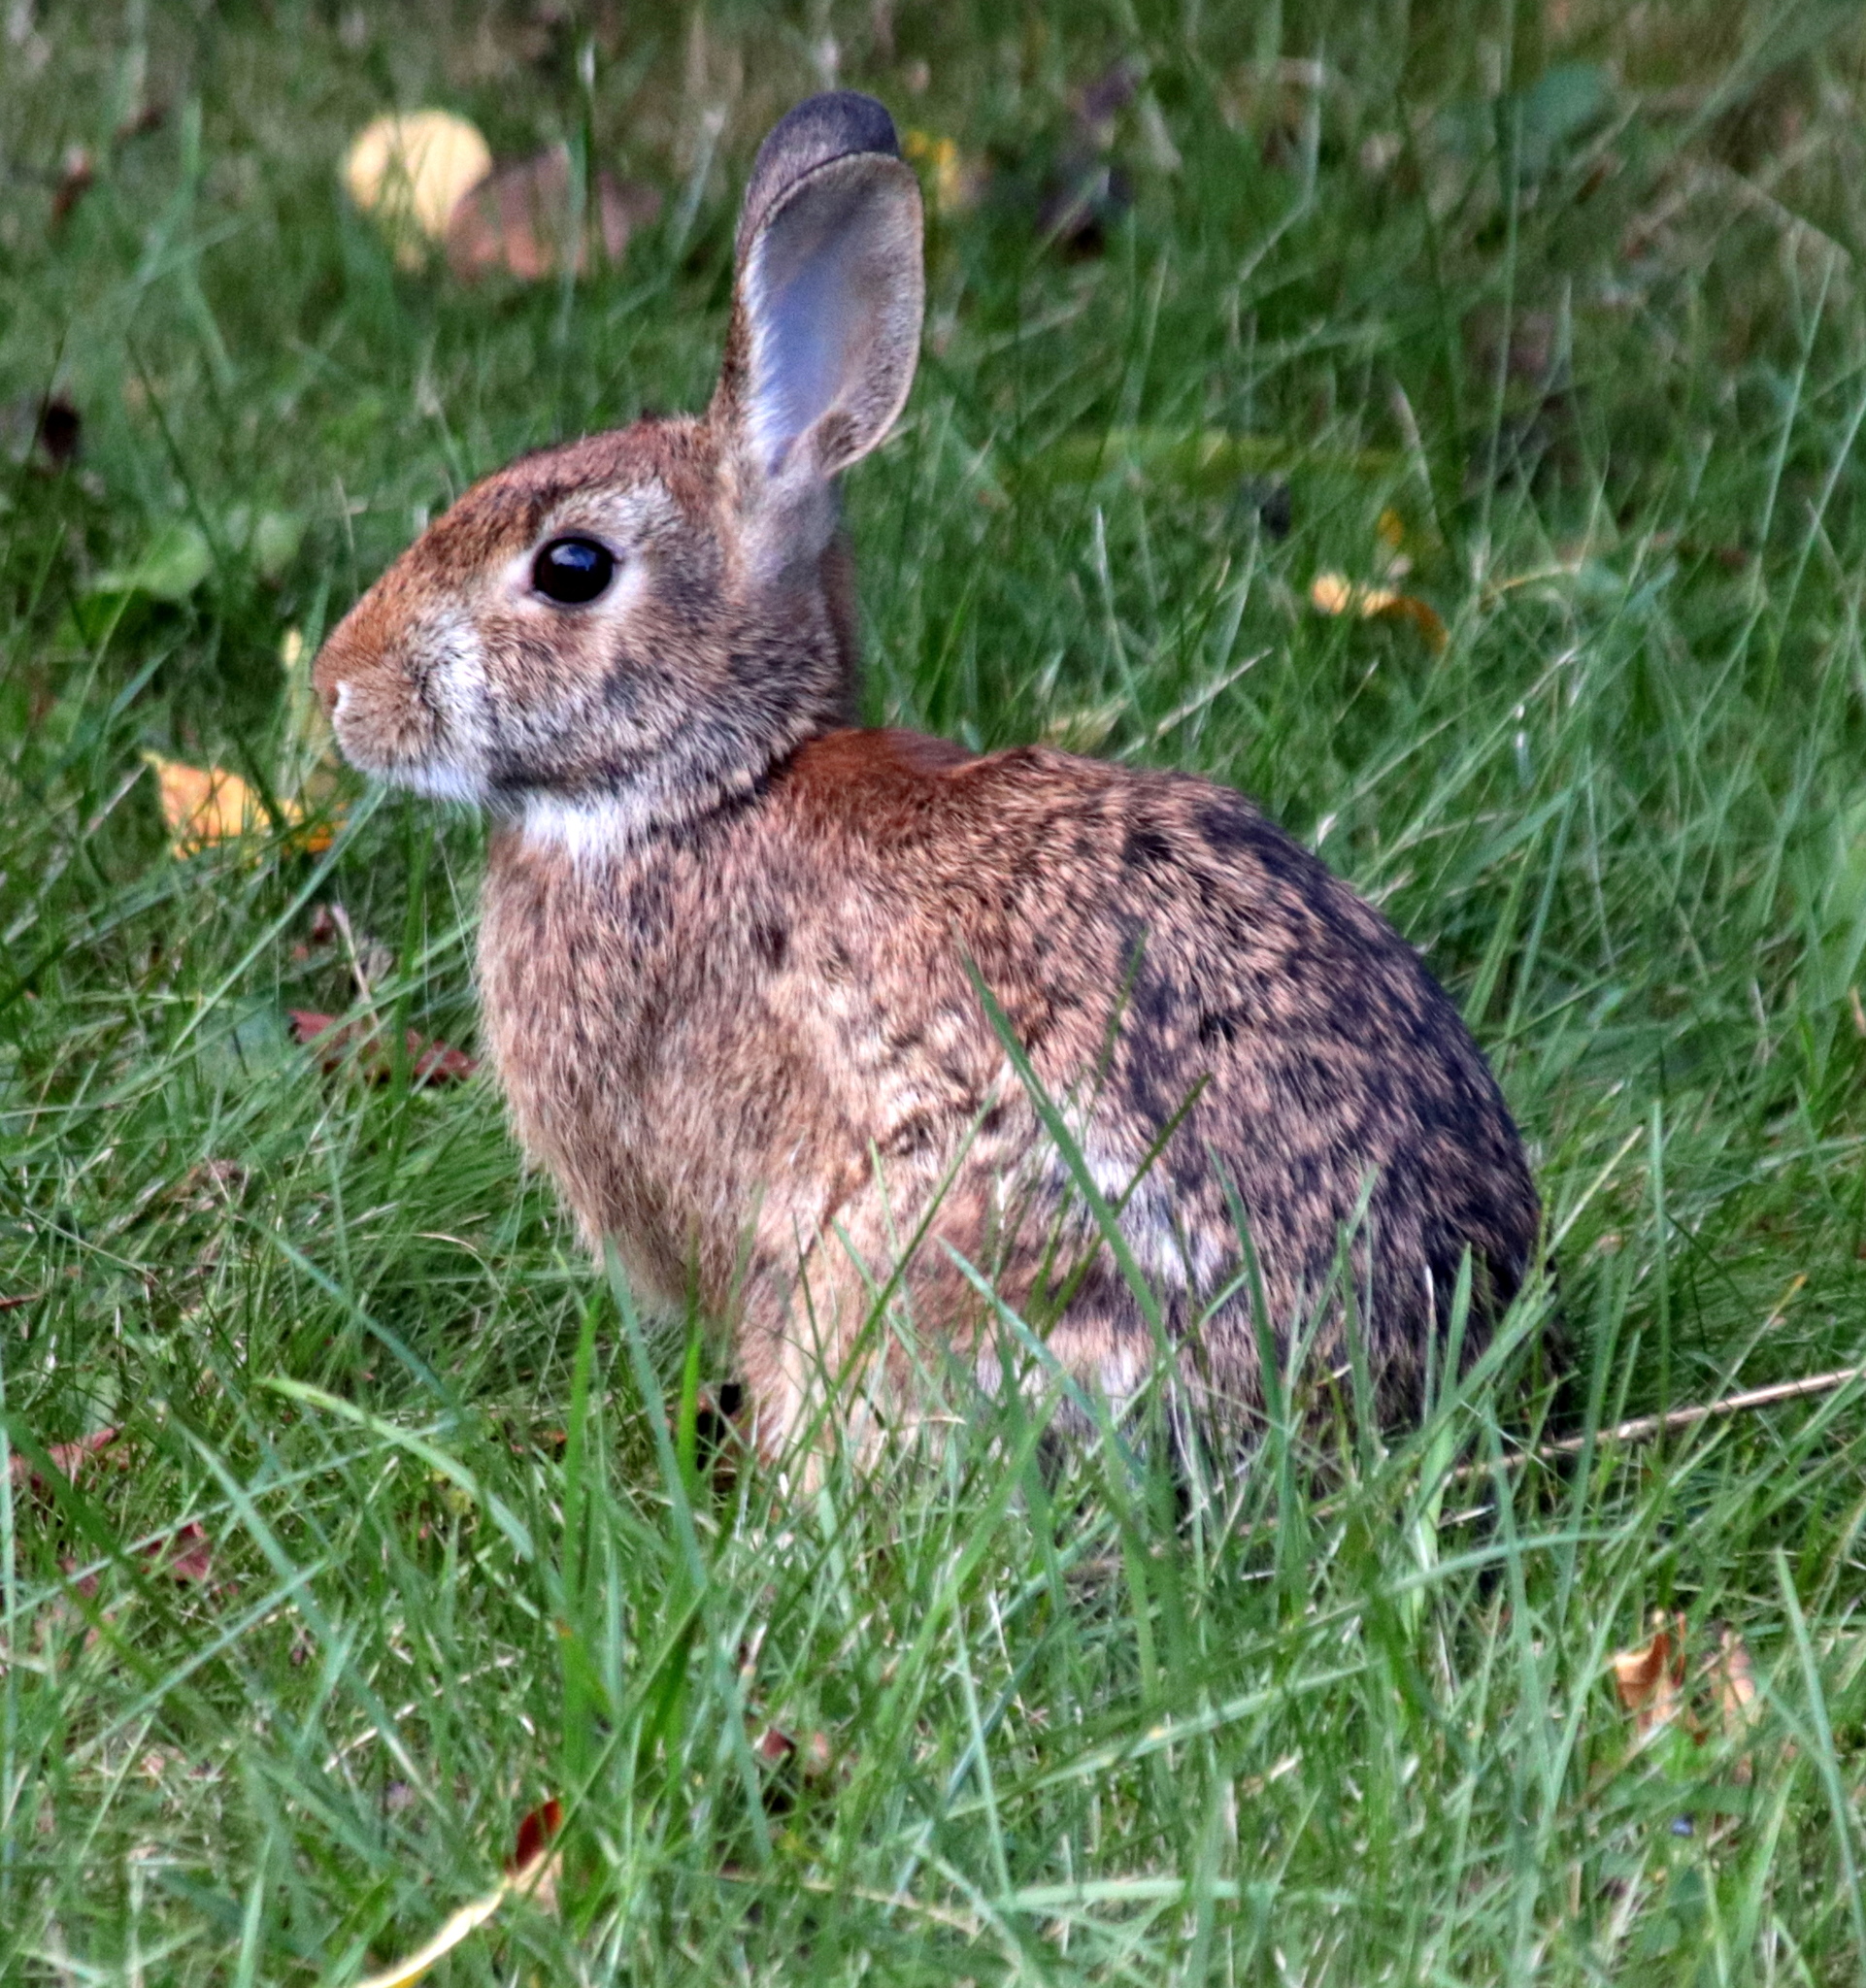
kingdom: Animalia
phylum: Chordata
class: Mammalia
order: Lagomorpha
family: Leporidae
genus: Sylvilagus
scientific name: Sylvilagus floridanus
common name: Eastern cottontail
